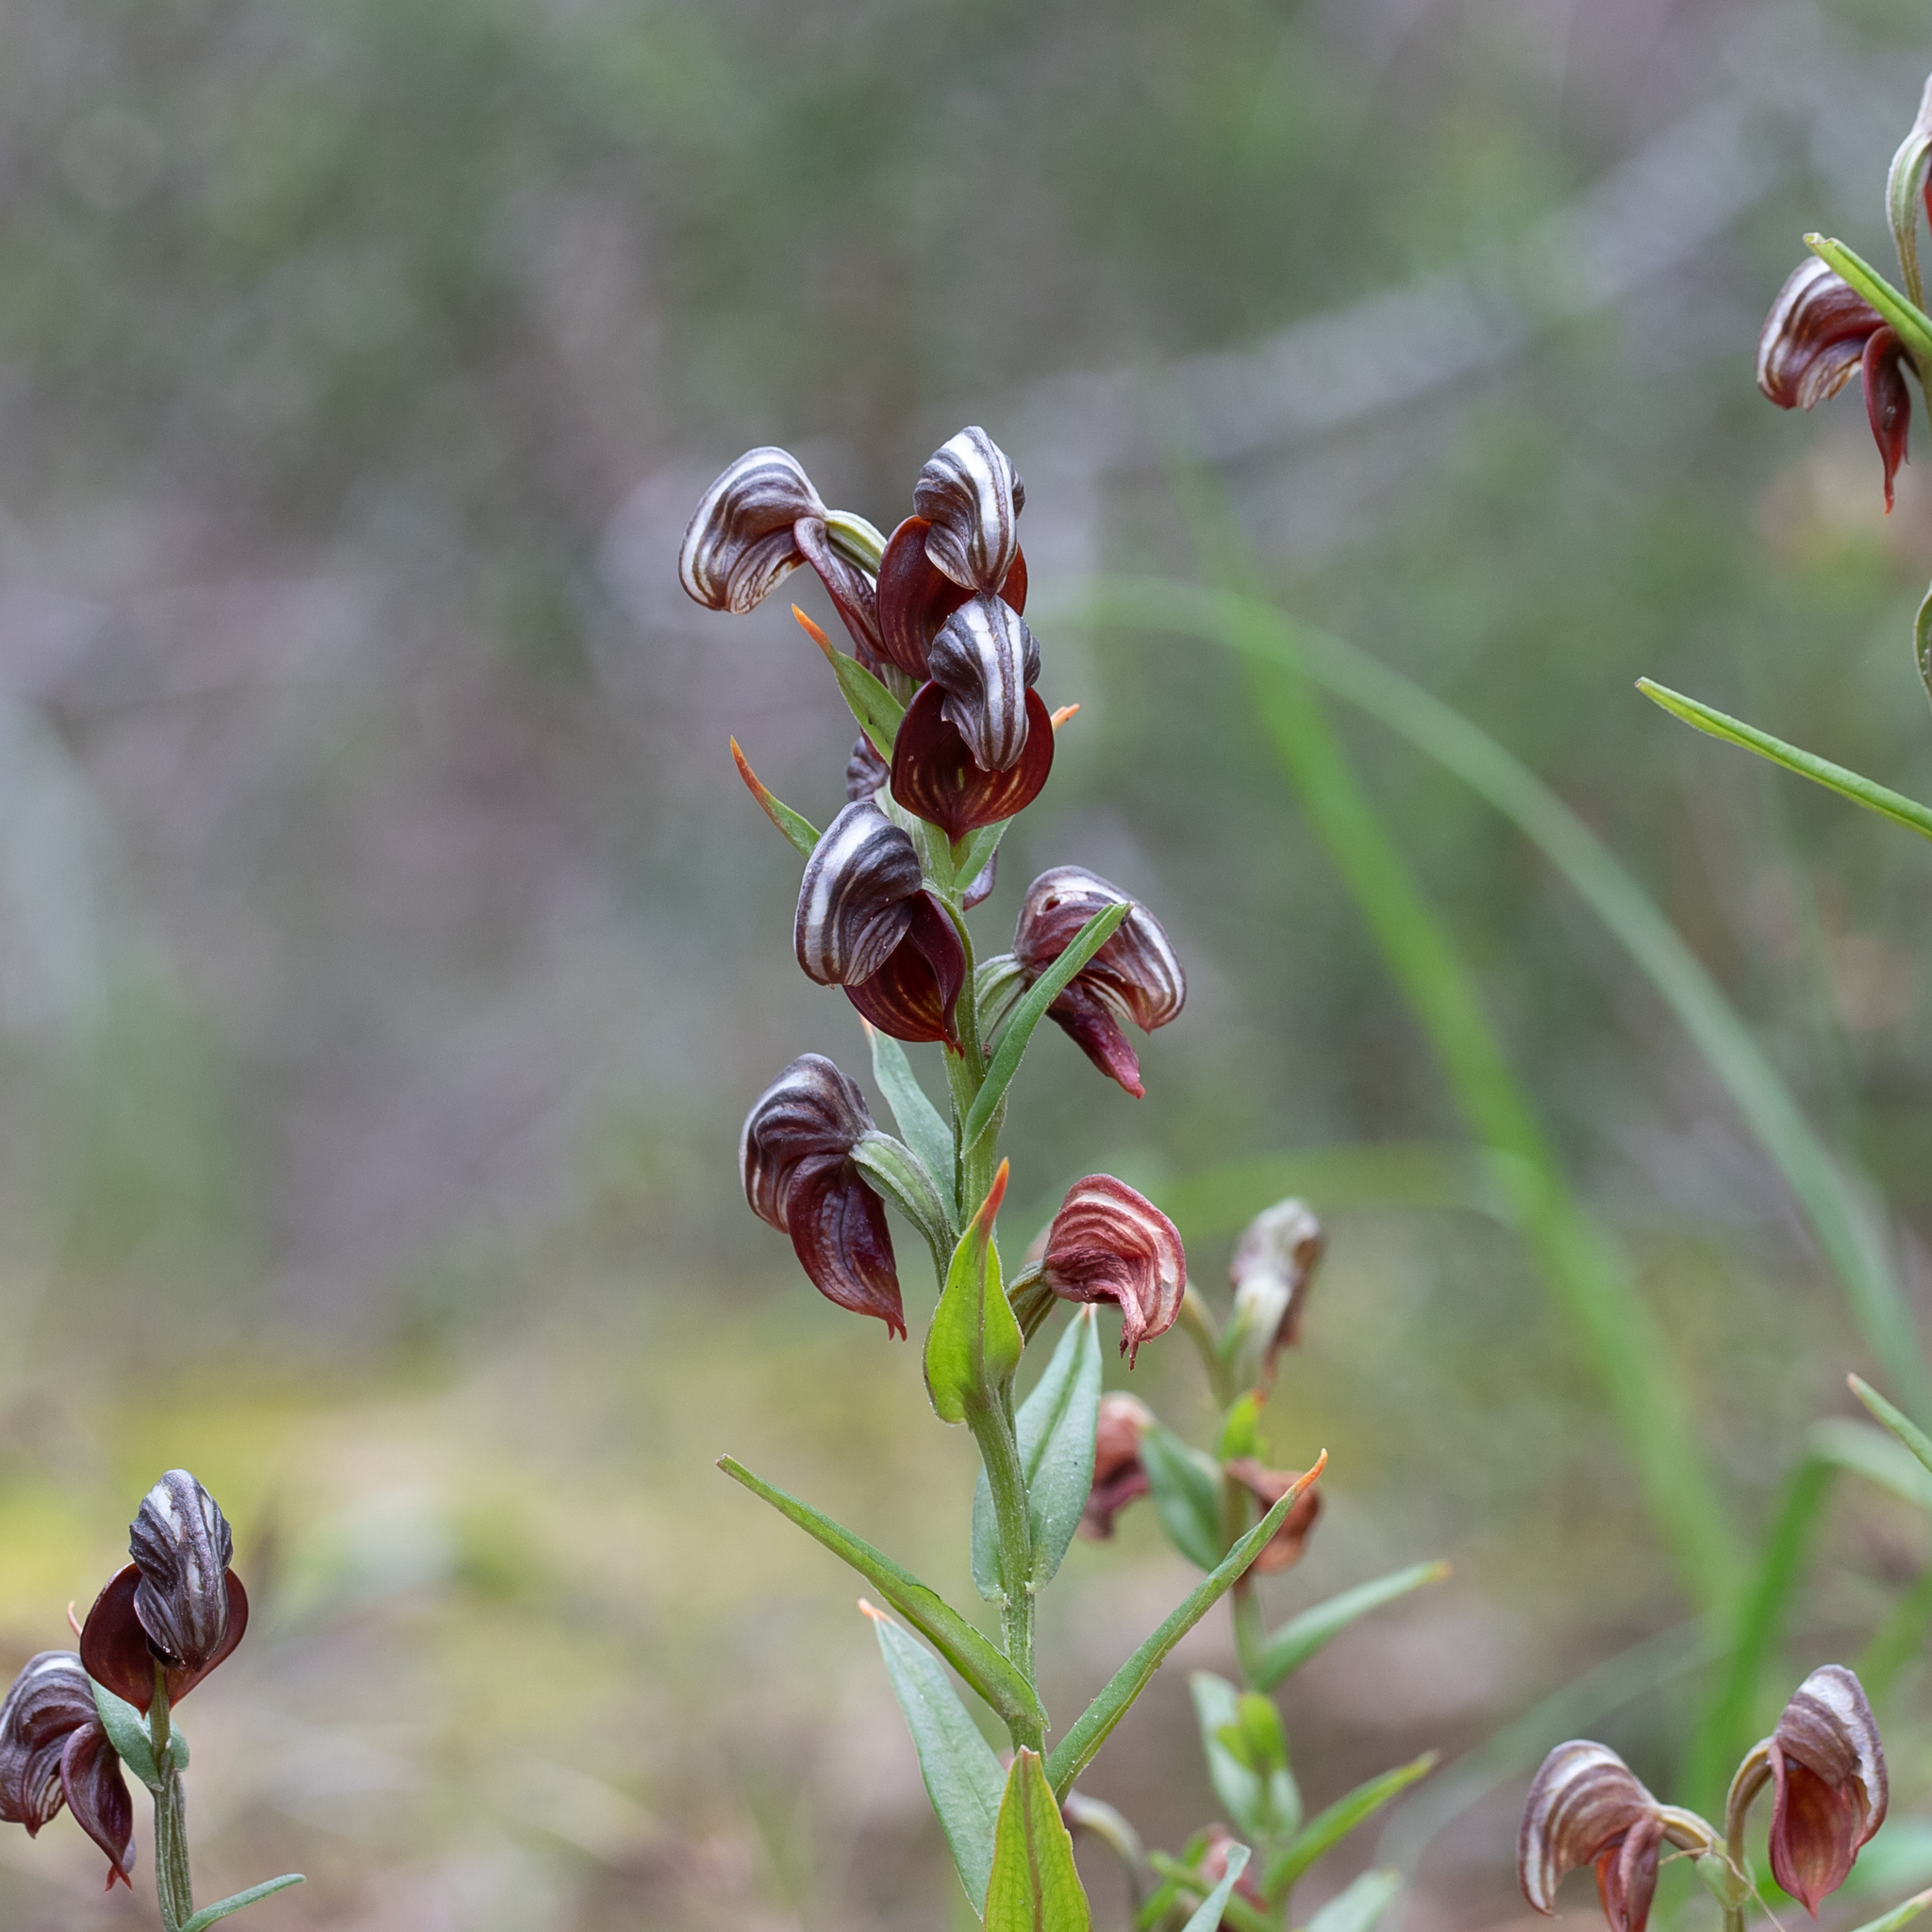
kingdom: Plantae
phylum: Tracheophyta
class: Liliopsida
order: Asparagales
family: Orchidaceae
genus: Pterostylis
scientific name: Pterostylis sanguinea
